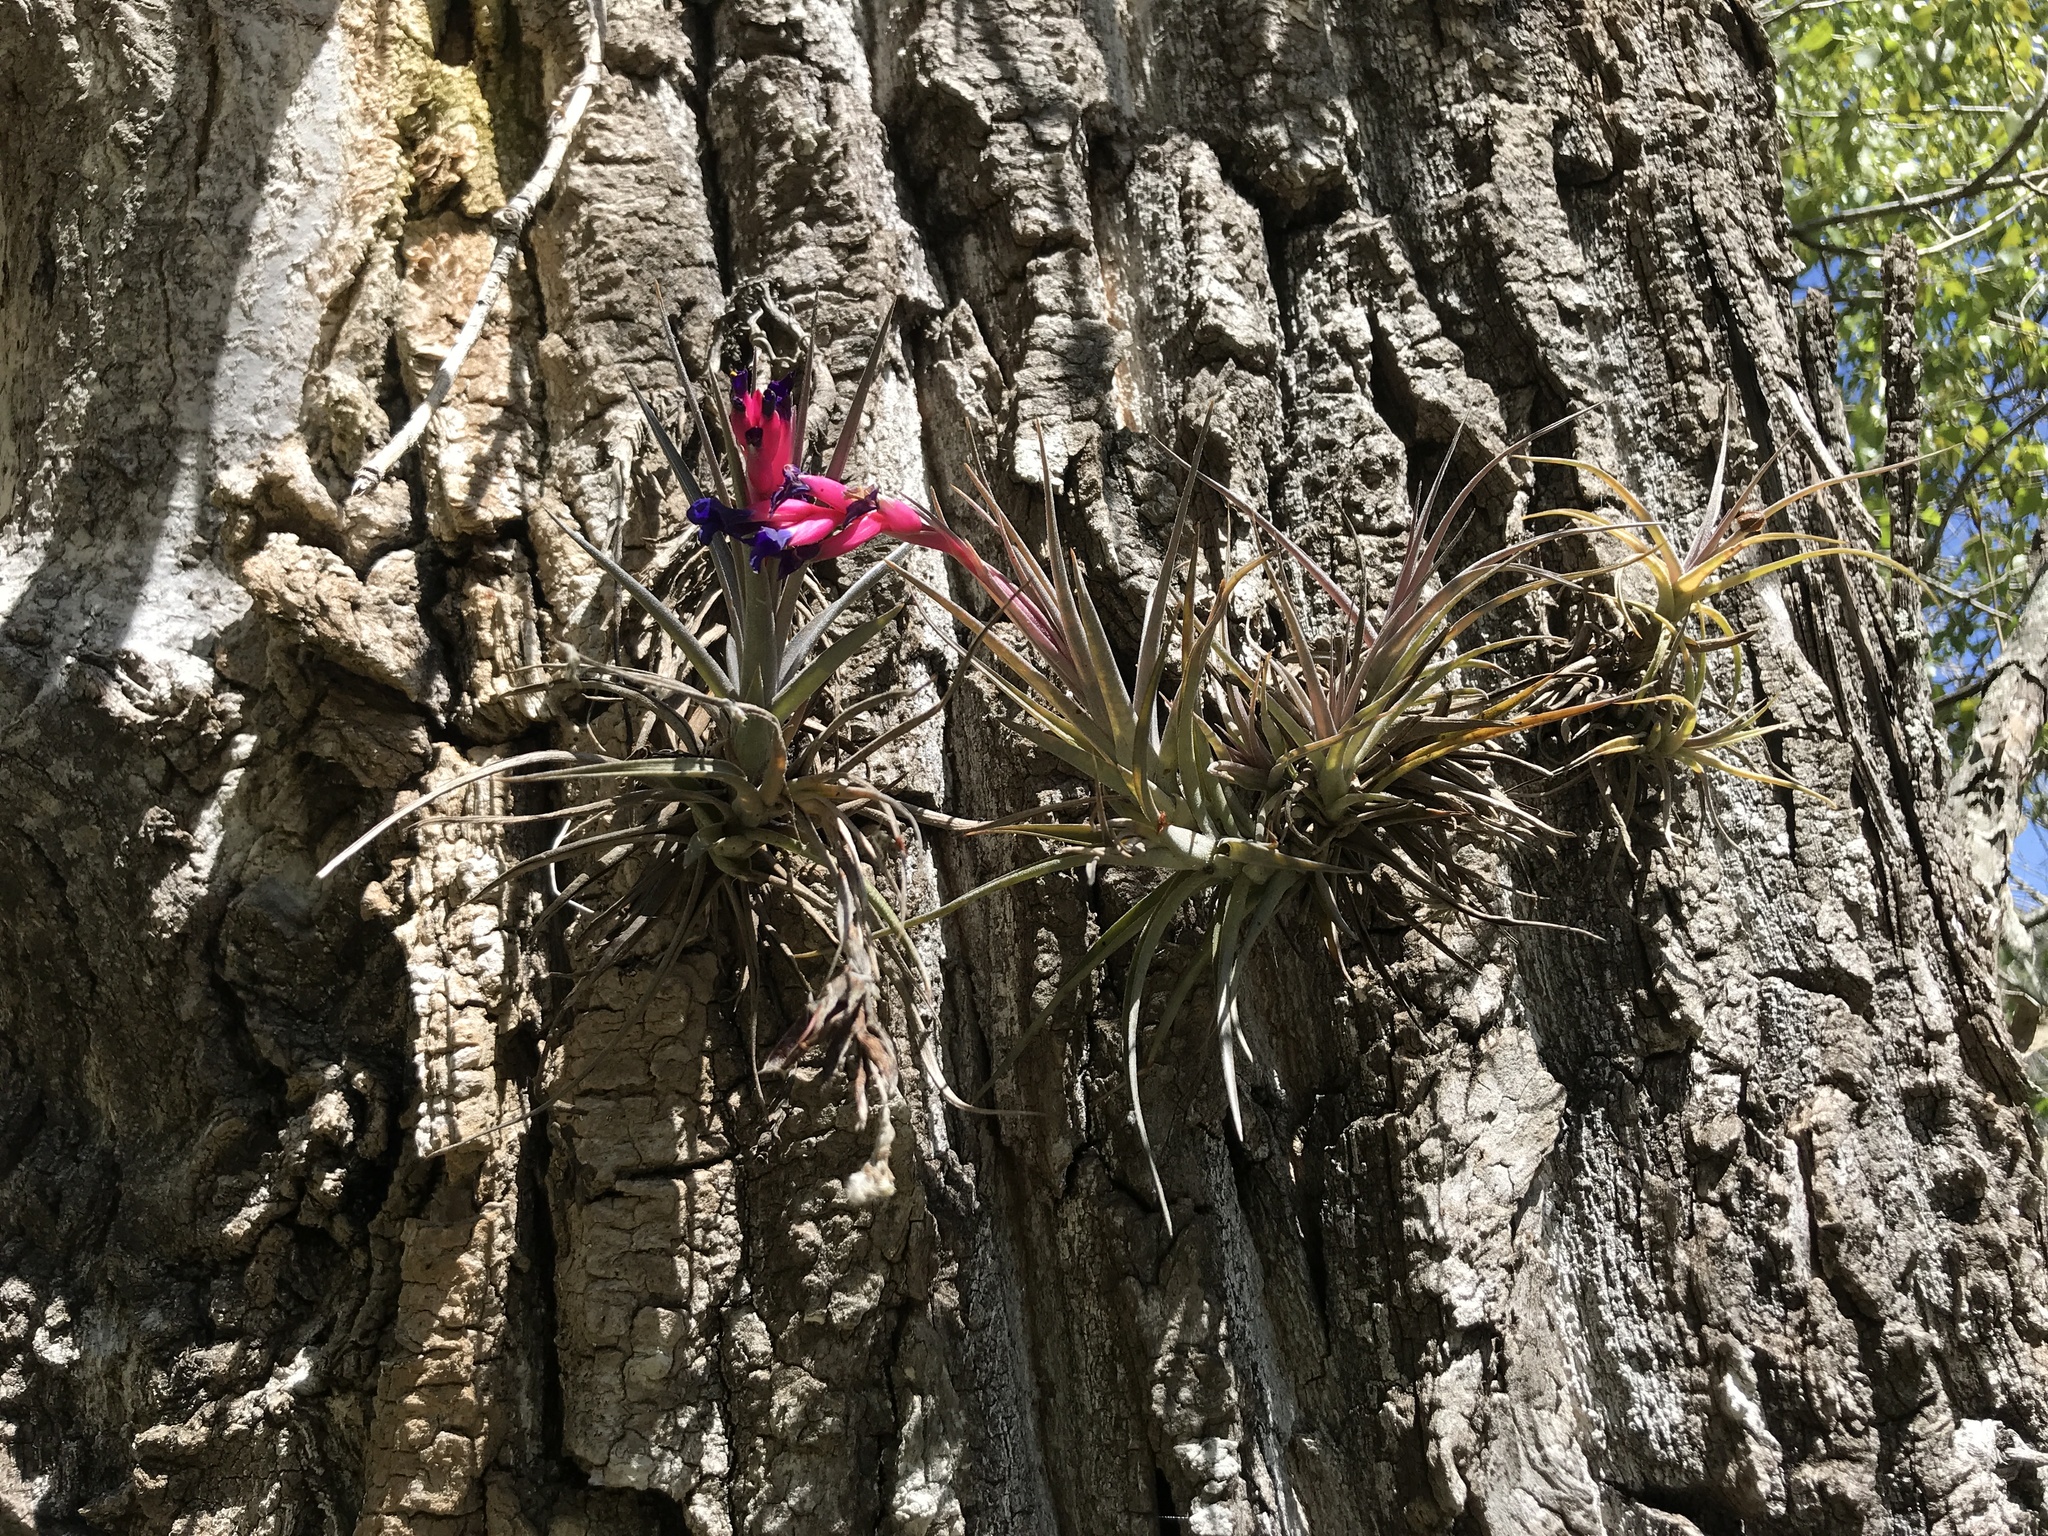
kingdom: Plantae
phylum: Tracheophyta
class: Liliopsida
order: Poales
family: Bromeliaceae
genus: Tillandsia
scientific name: Tillandsia aeranthos
